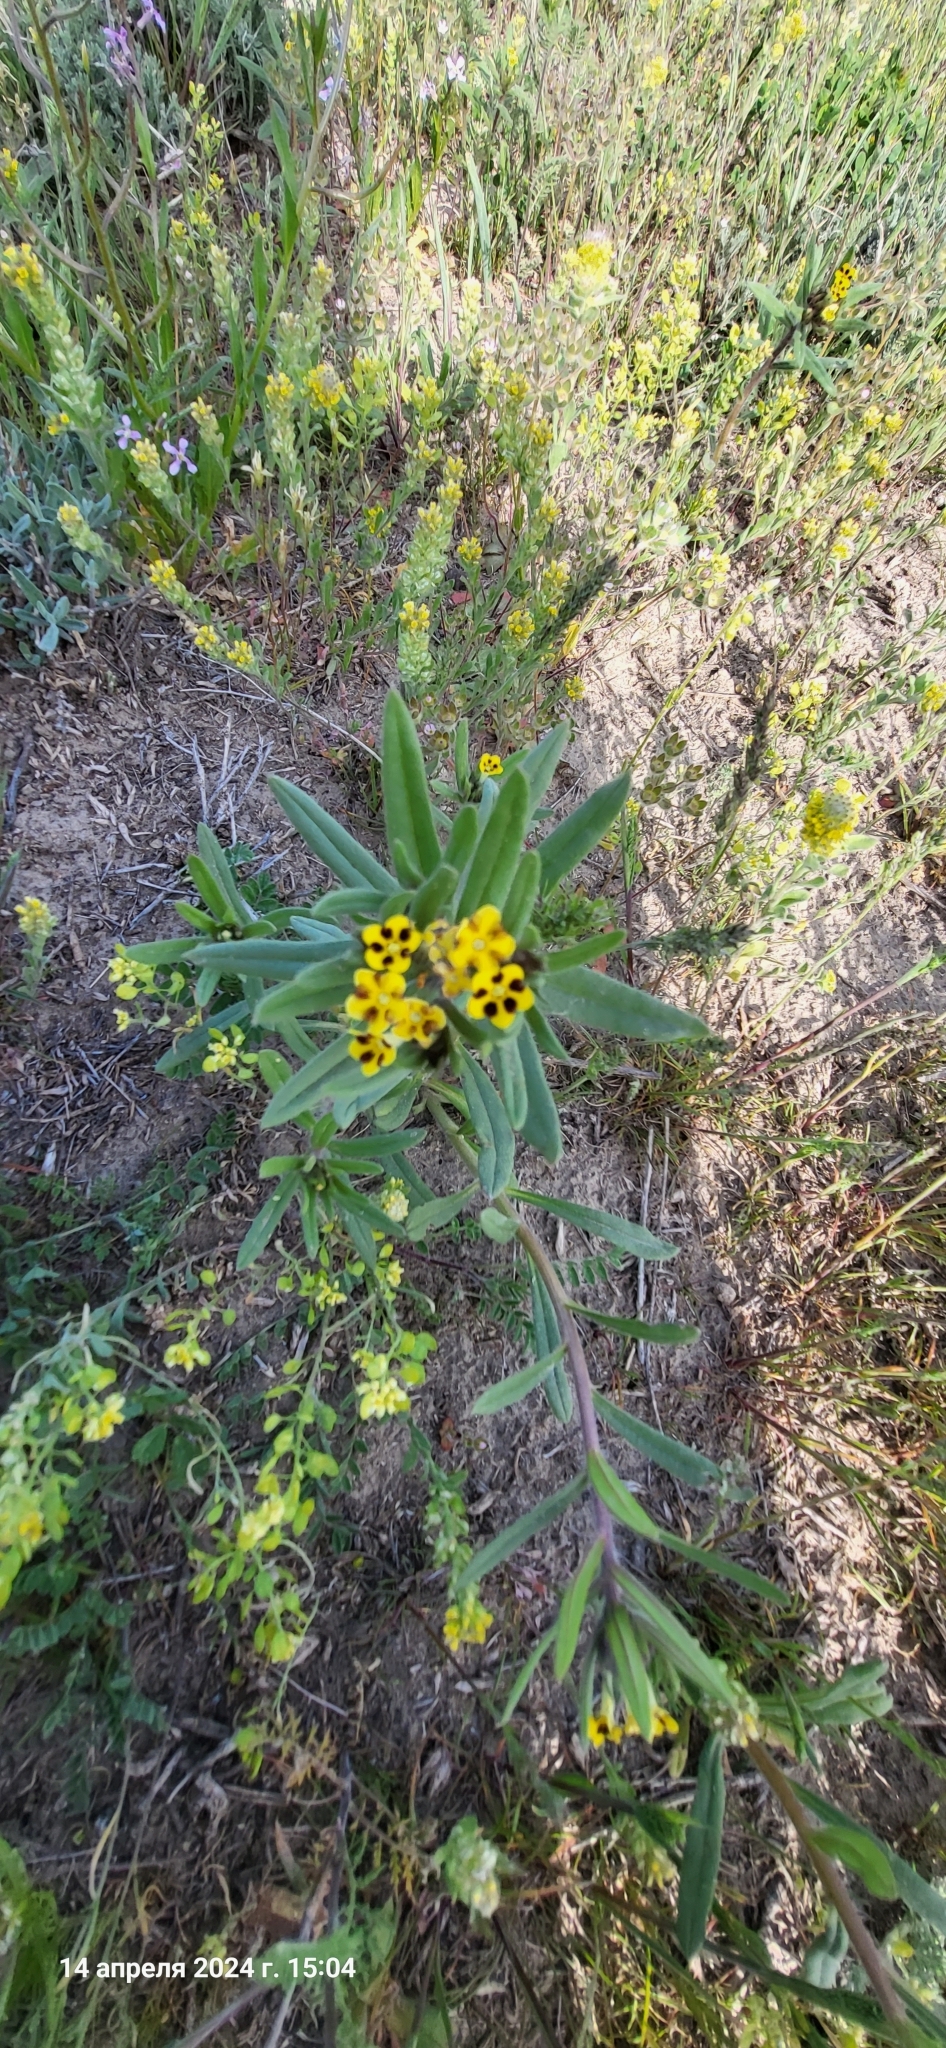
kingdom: Plantae
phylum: Tracheophyta
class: Magnoliopsida
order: Boraginales
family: Boraginaceae
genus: Arnebia
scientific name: Arnebia guttata
